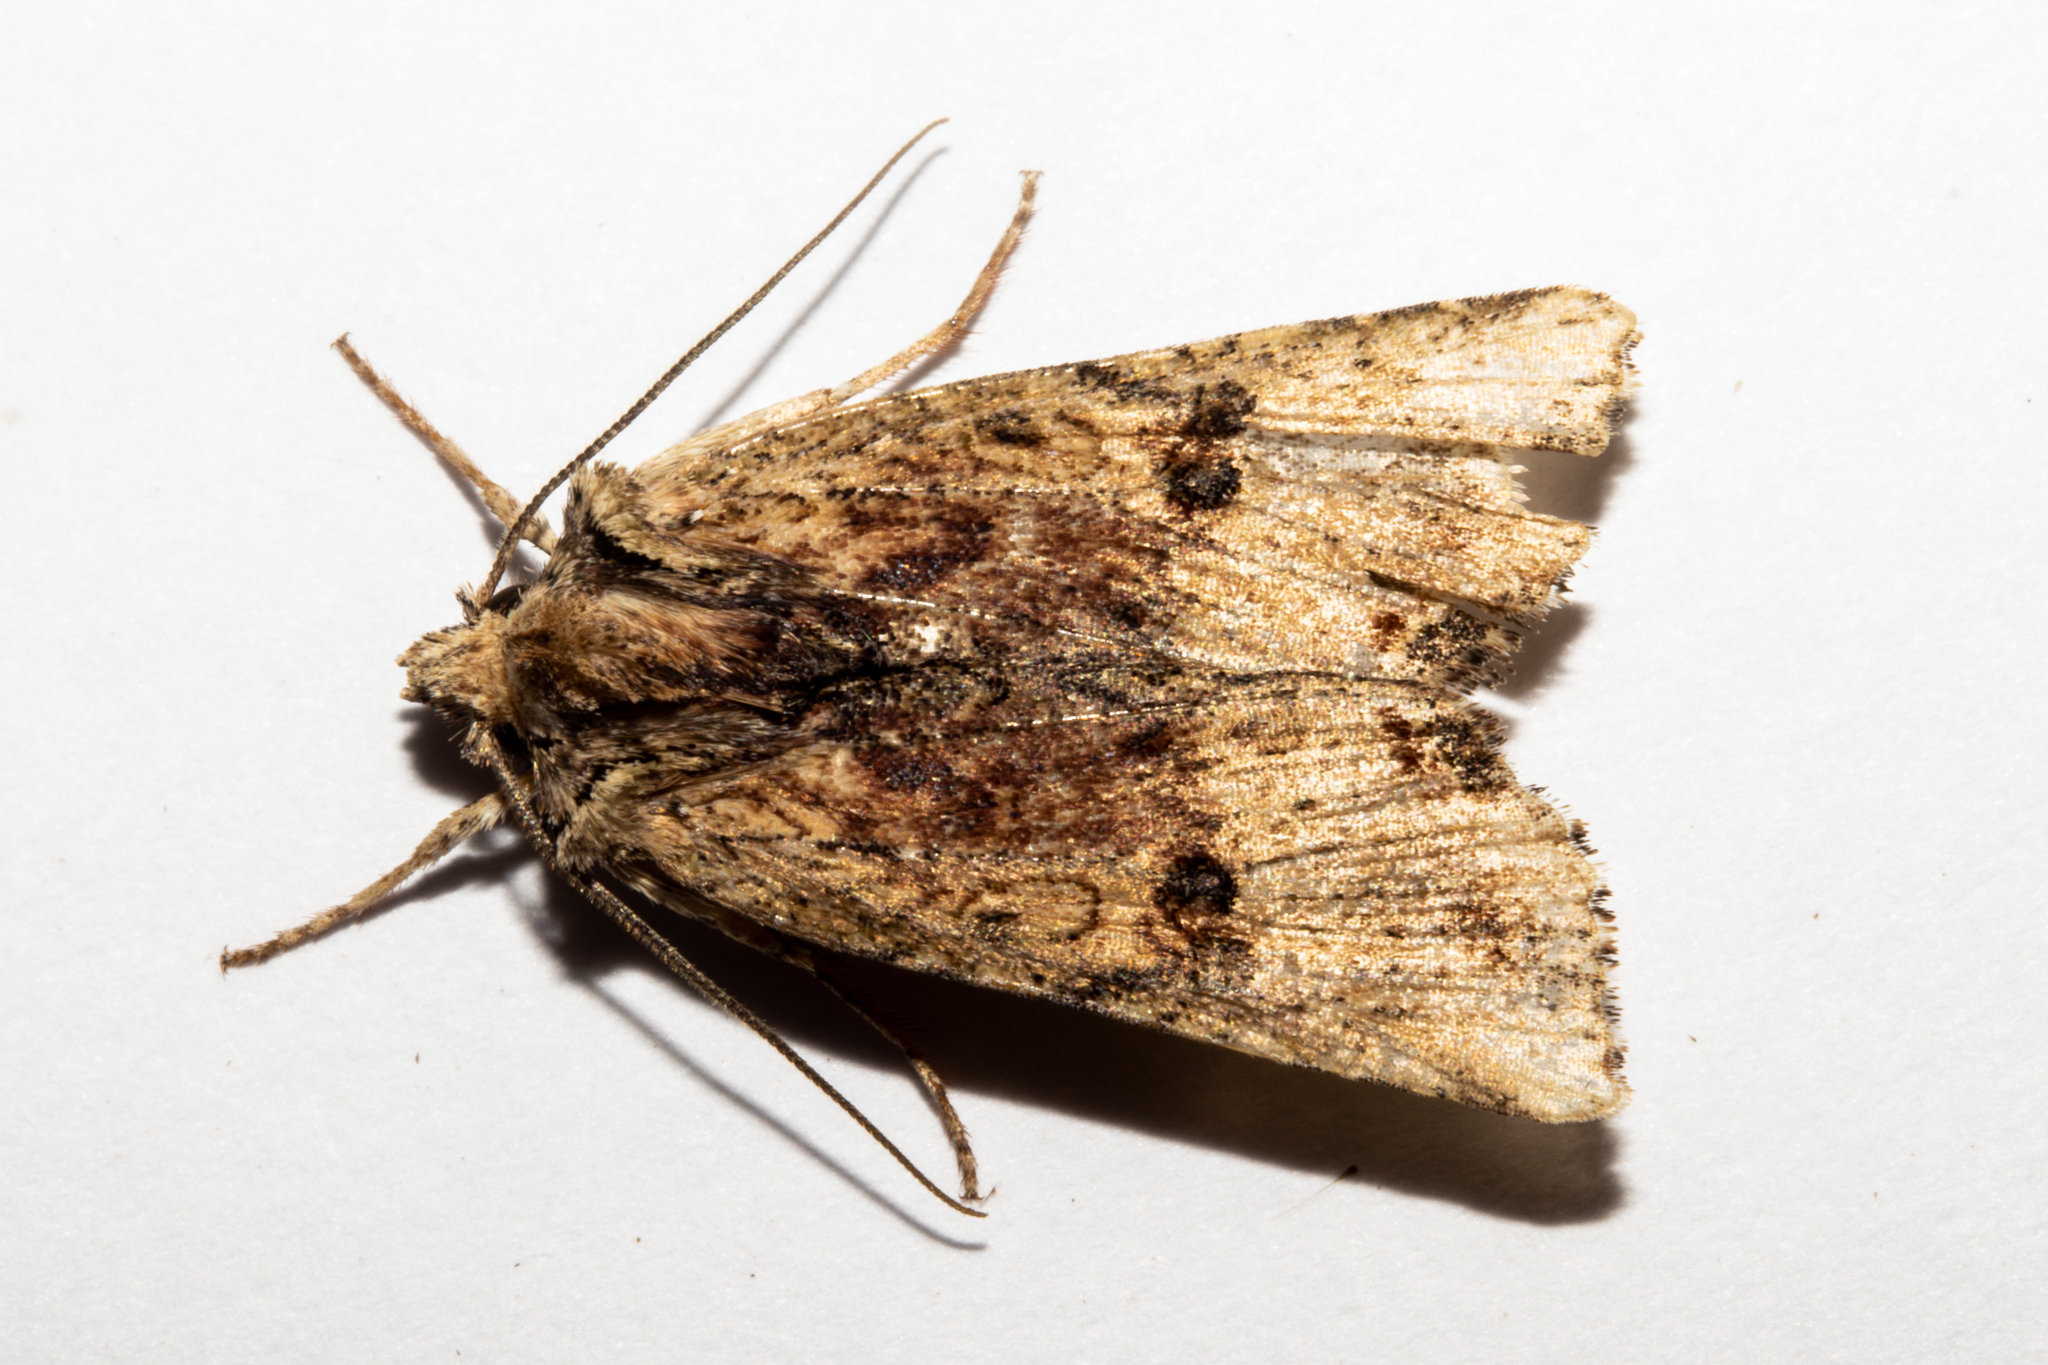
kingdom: Animalia
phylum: Arthropoda
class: Insecta
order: Lepidoptera
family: Noctuidae
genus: Meterana
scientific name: Meterana coeleno
